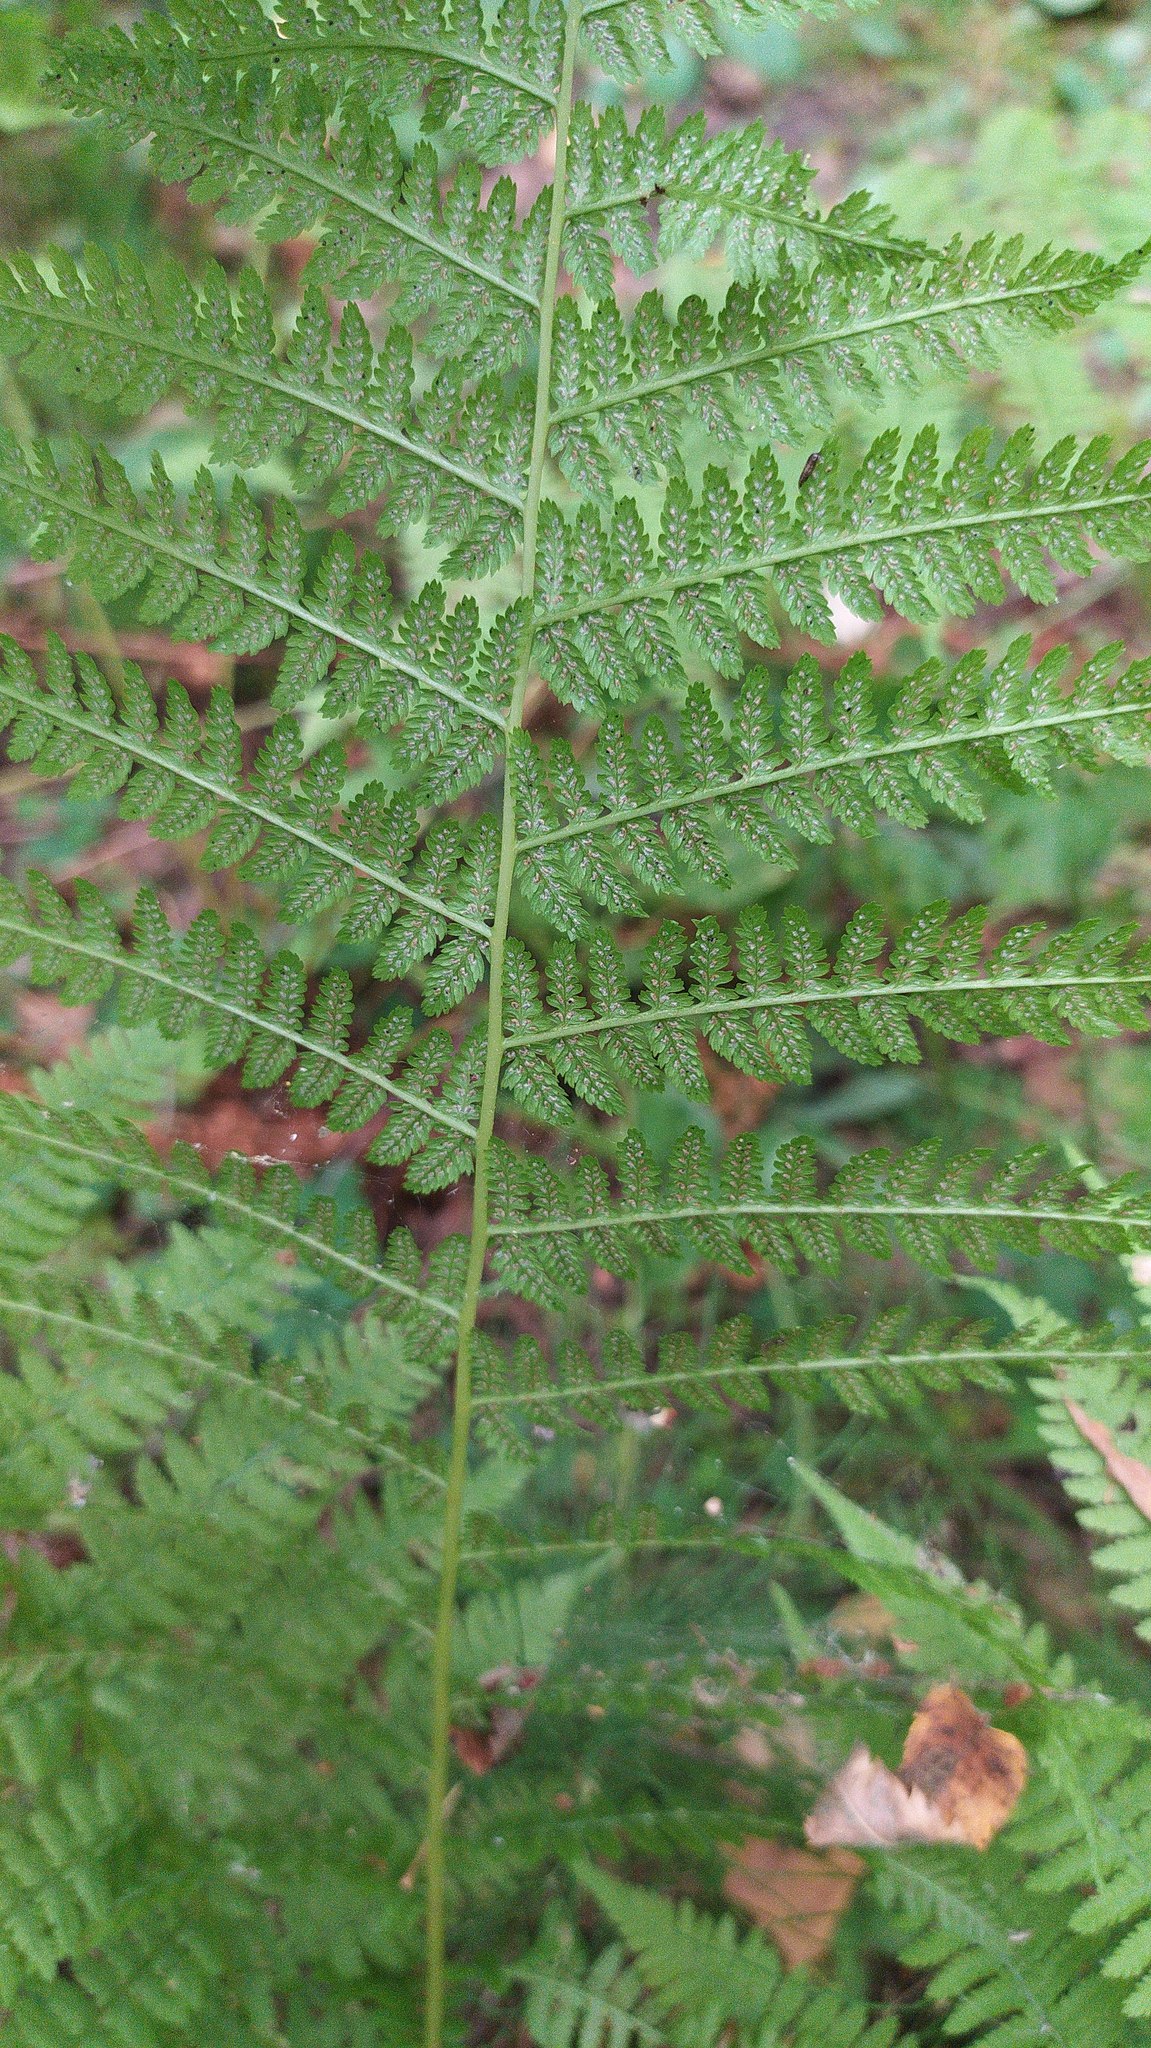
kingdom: Plantae
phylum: Tracheophyta
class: Polypodiopsida
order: Polypodiales
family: Athyriaceae
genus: Athyrium
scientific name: Athyrium filix-femina
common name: Lady fern
